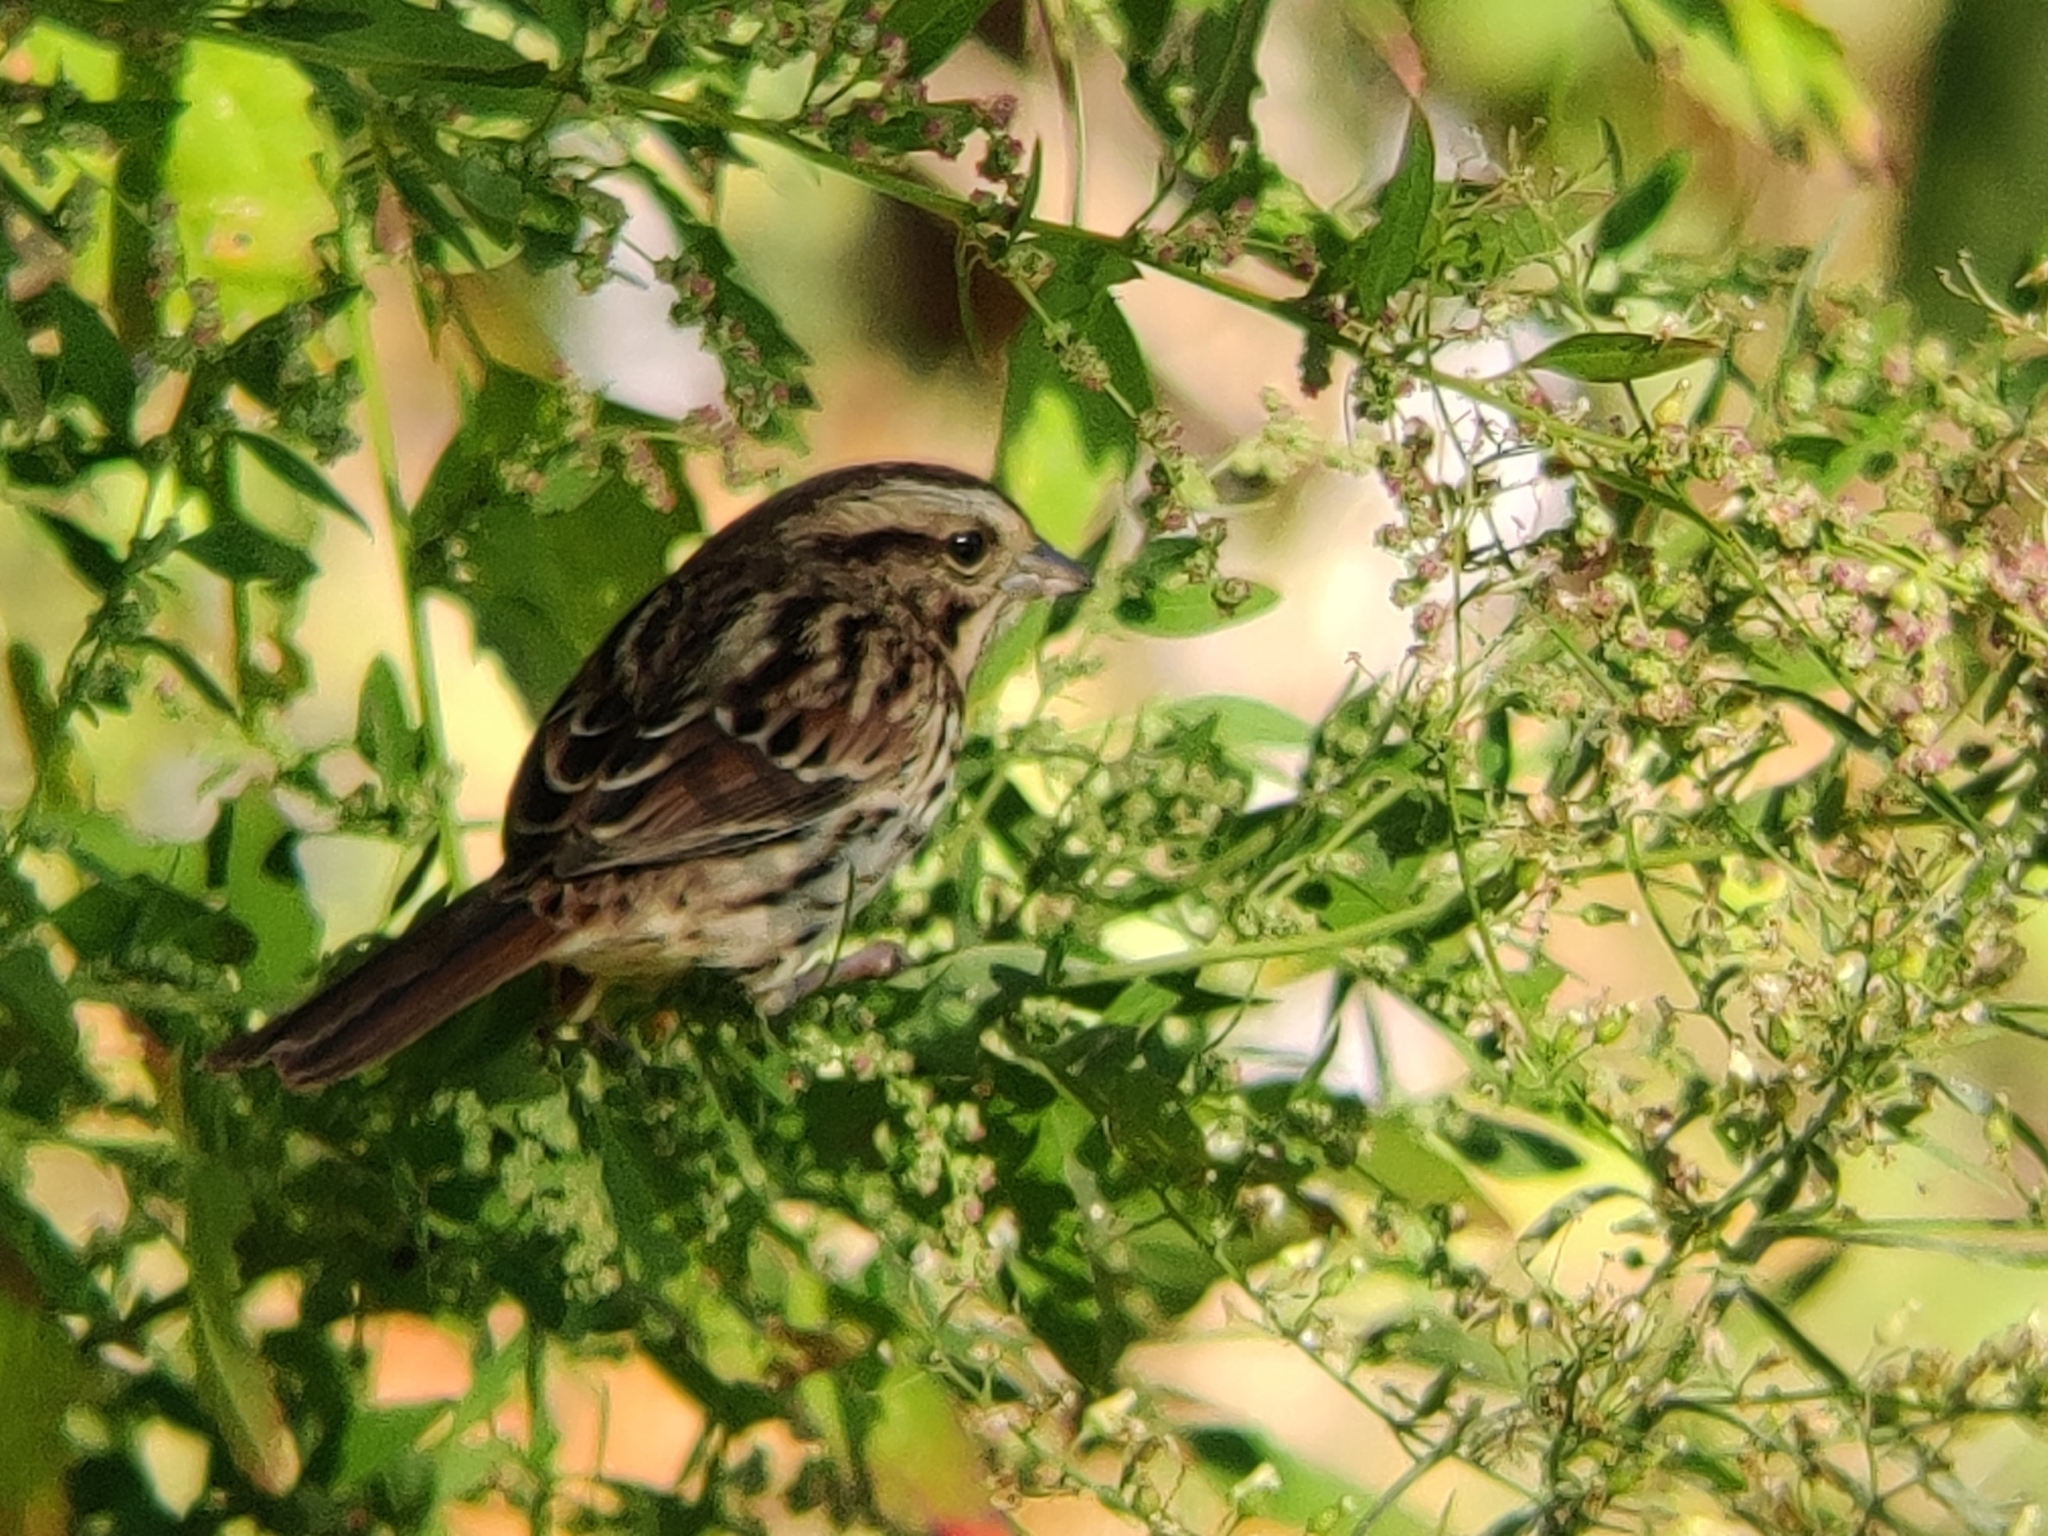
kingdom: Animalia
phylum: Chordata
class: Aves
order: Passeriformes
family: Passerellidae
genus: Melospiza
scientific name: Melospiza melodia
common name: Song sparrow
